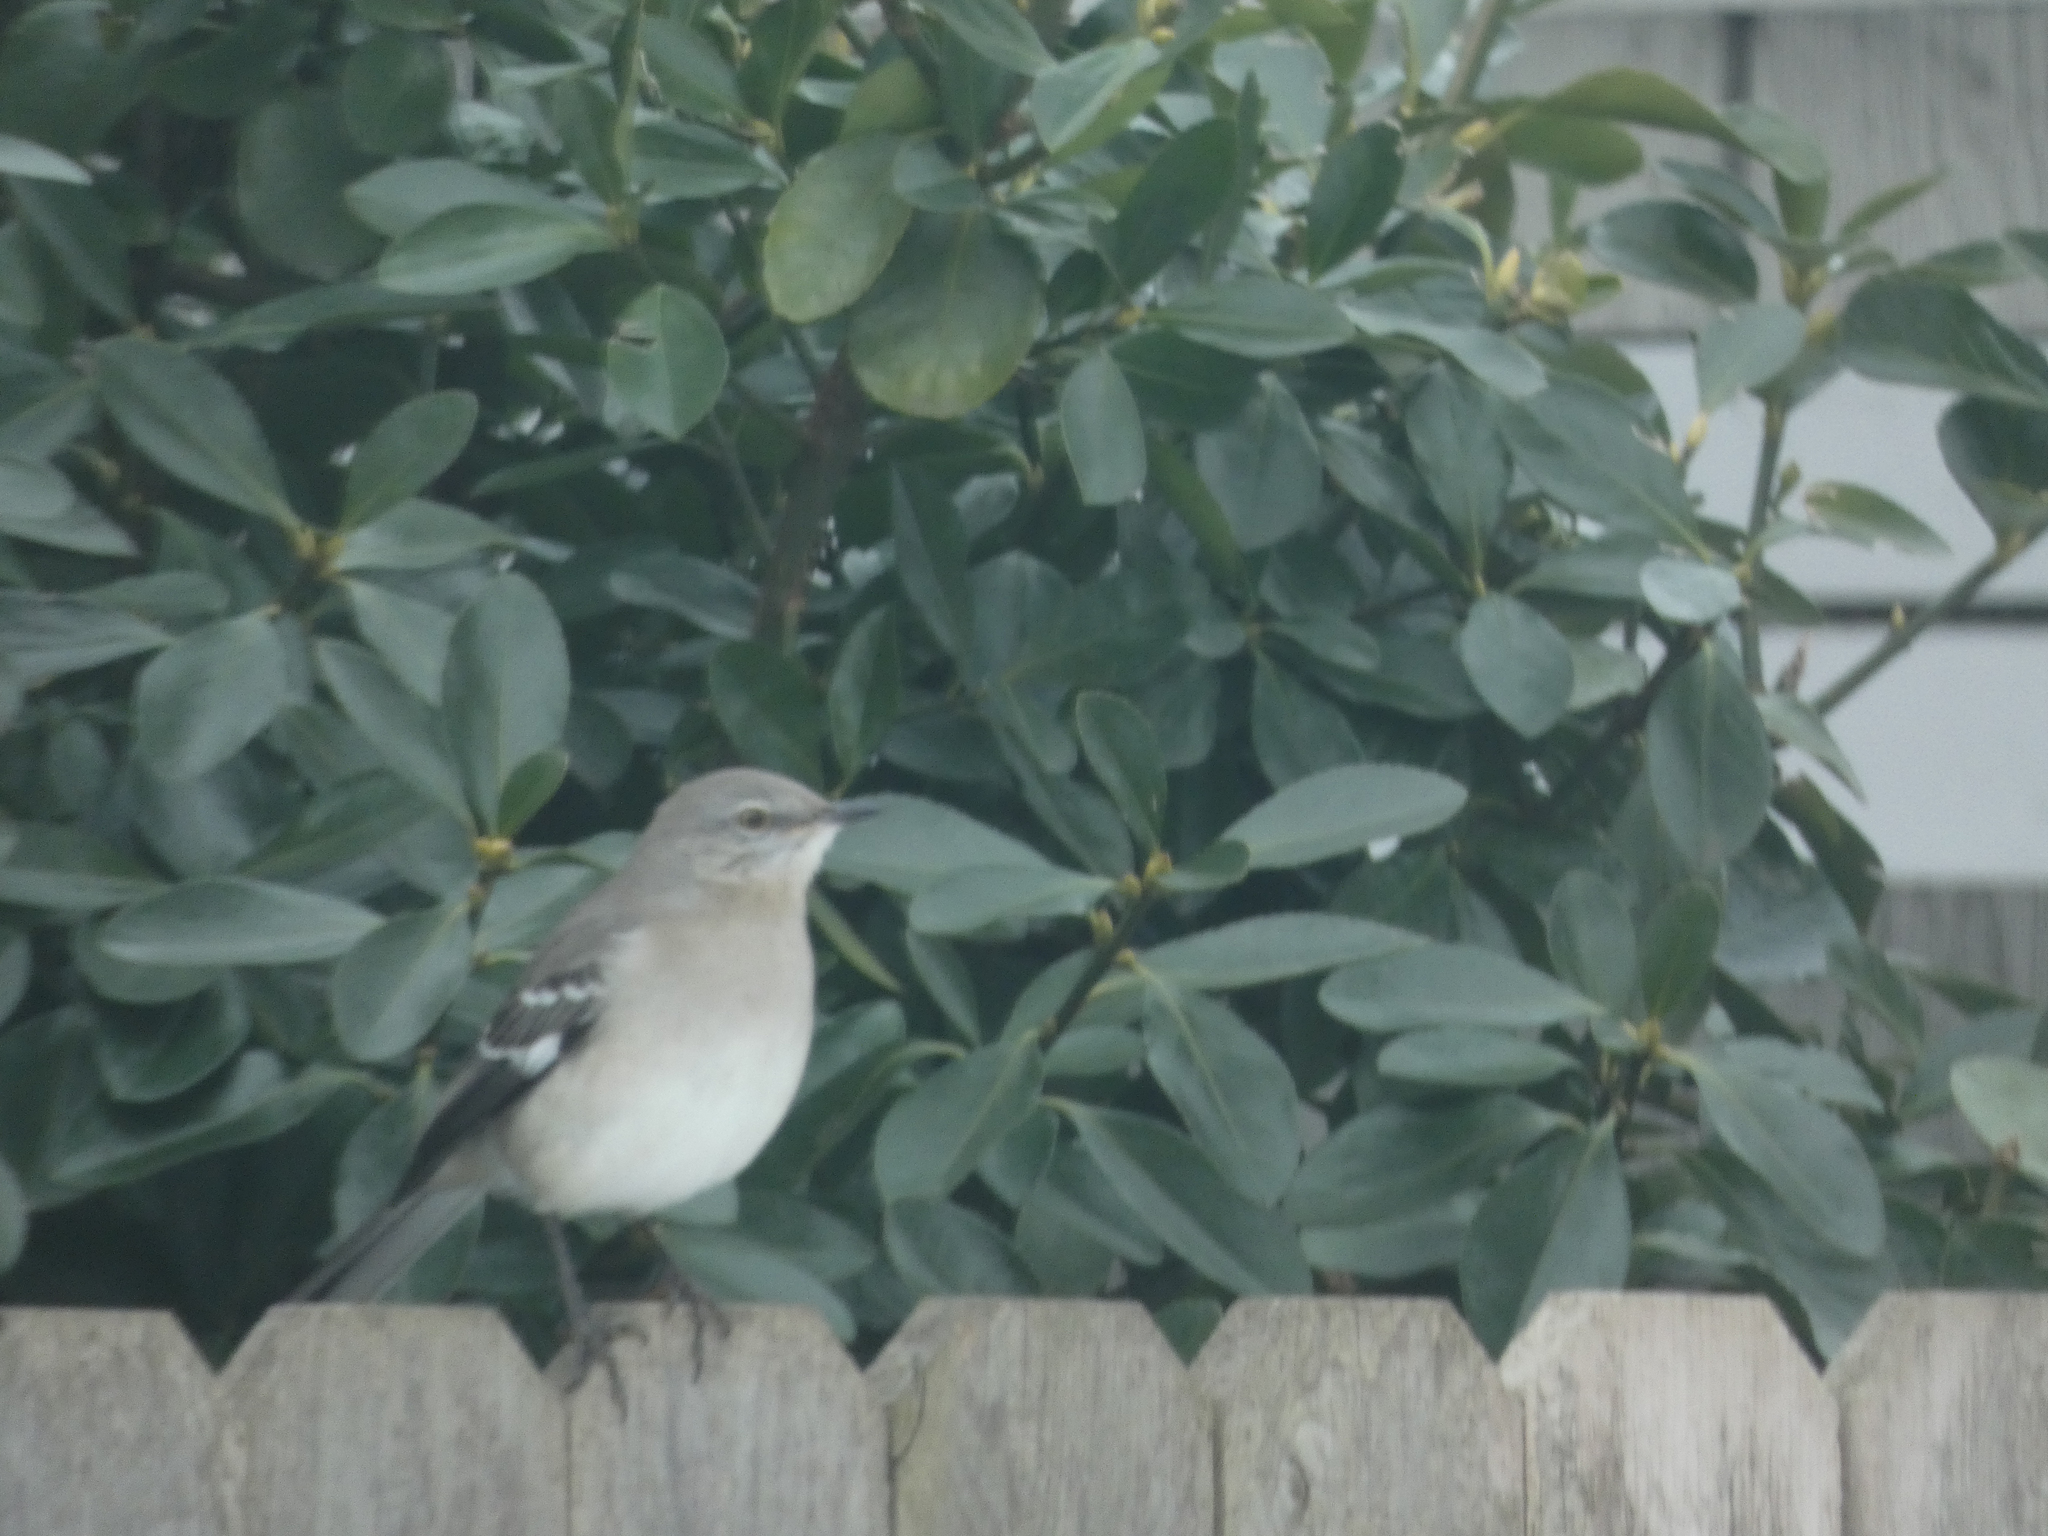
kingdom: Animalia
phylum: Chordata
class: Aves
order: Passeriformes
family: Mimidae
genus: Mimus
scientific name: Mimus polyglottos
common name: Northern mockingbird
